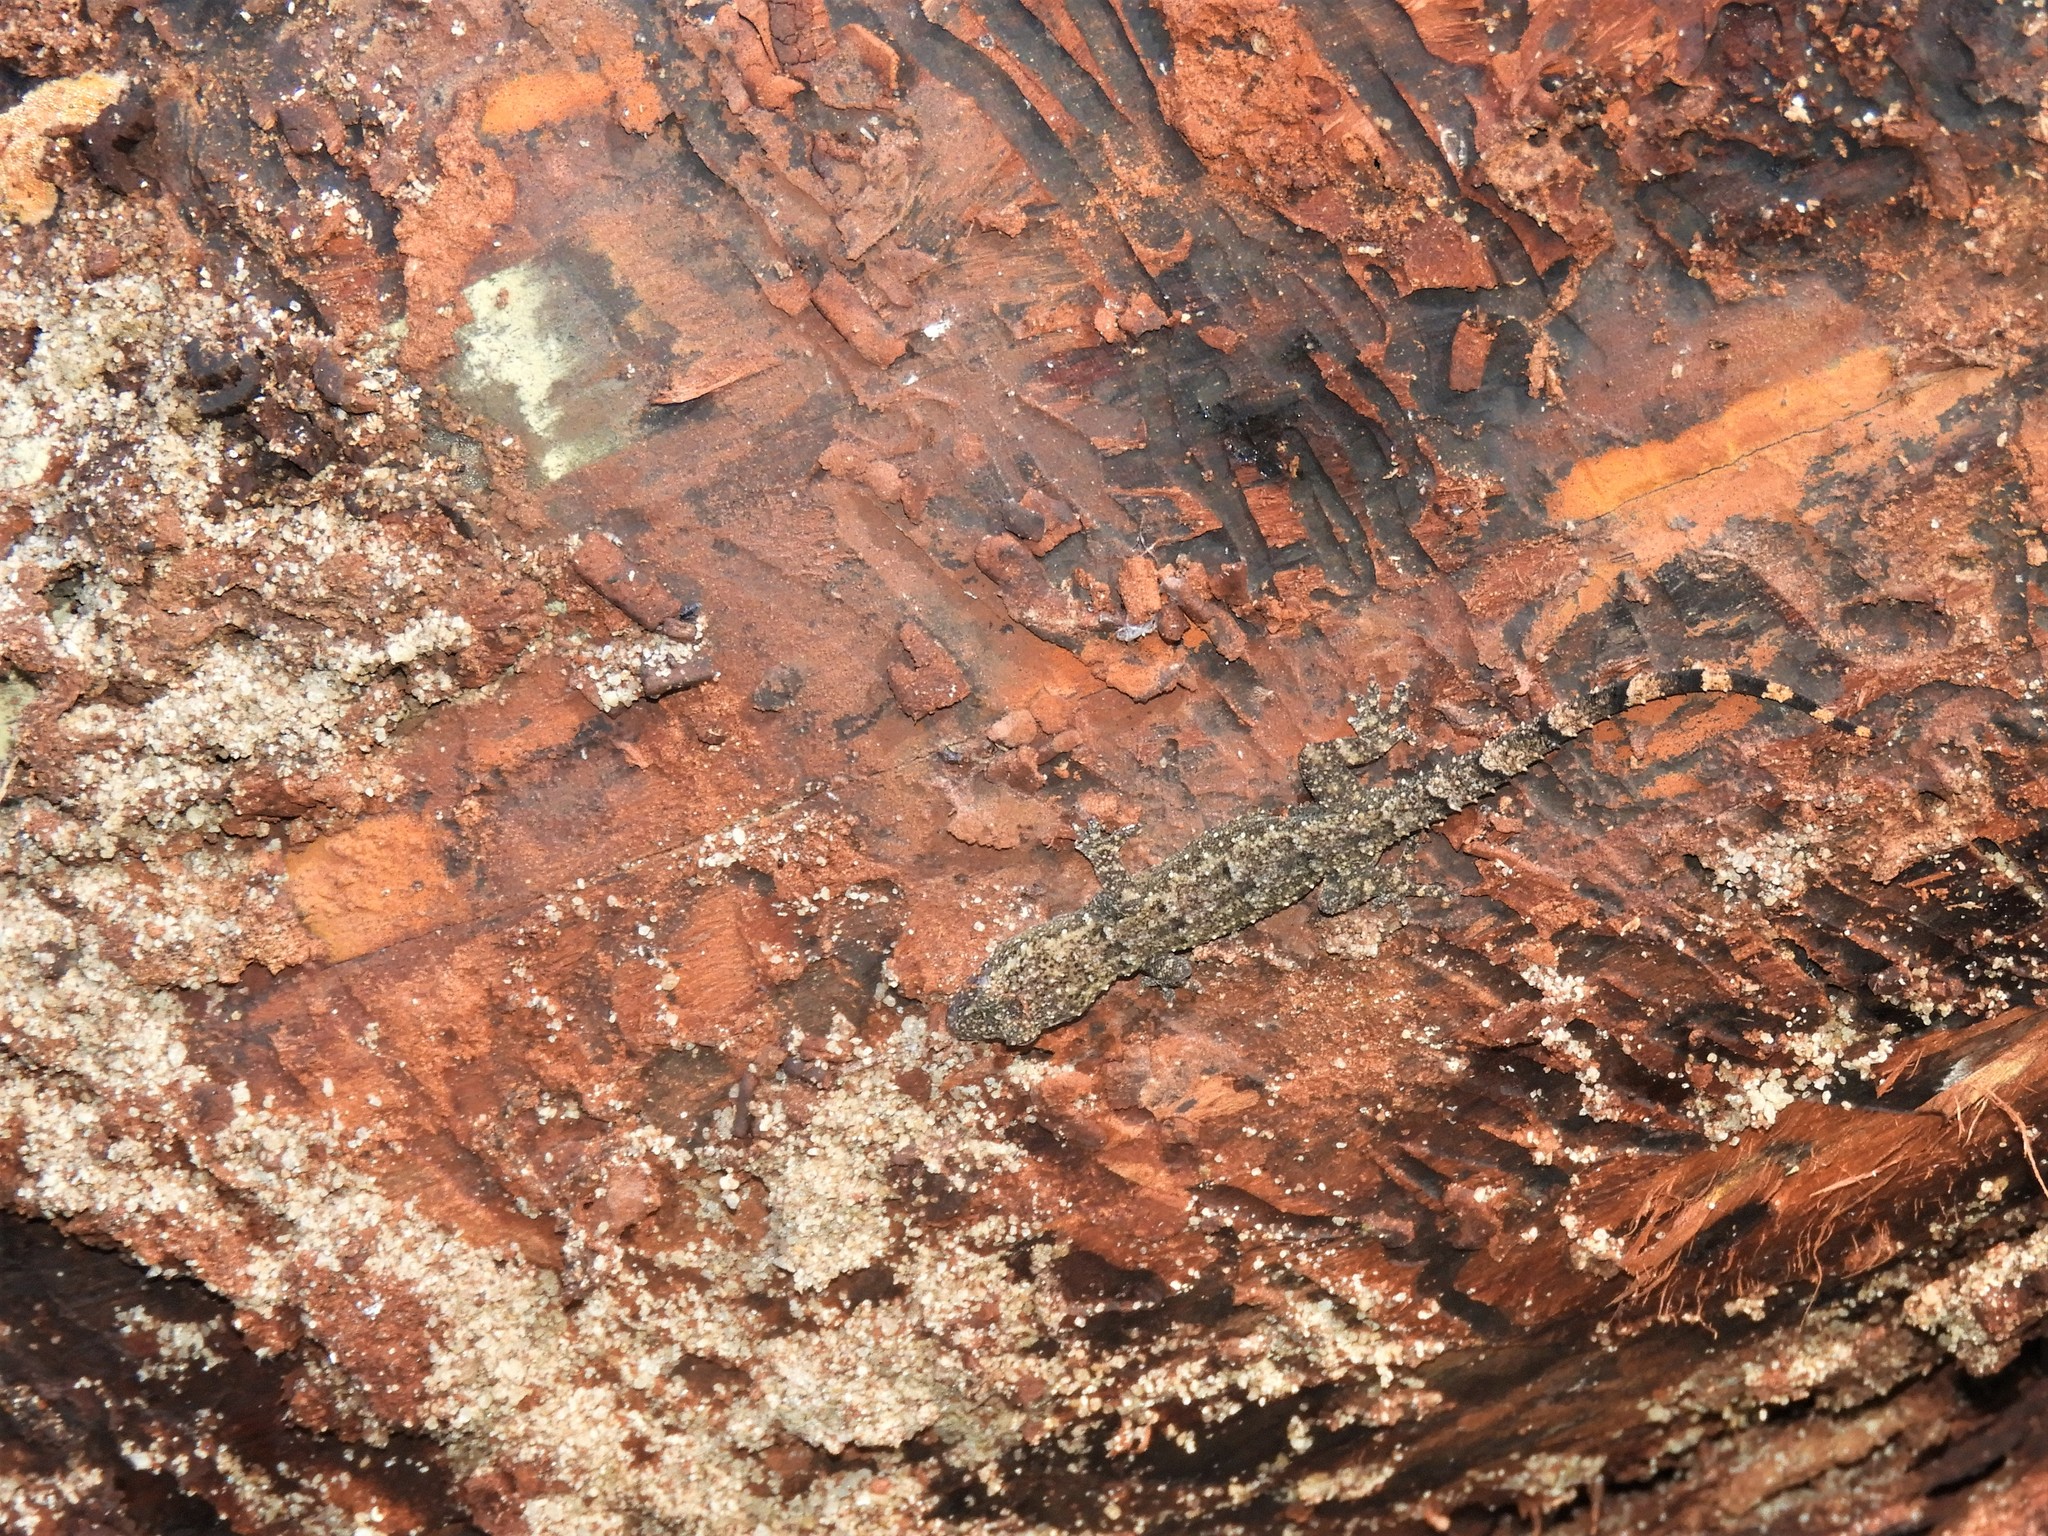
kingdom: Animalia
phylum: Chordata
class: Squamata
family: Gekkonidae
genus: Hemidactylus
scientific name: Hemidactylus mabouia
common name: House gecko
